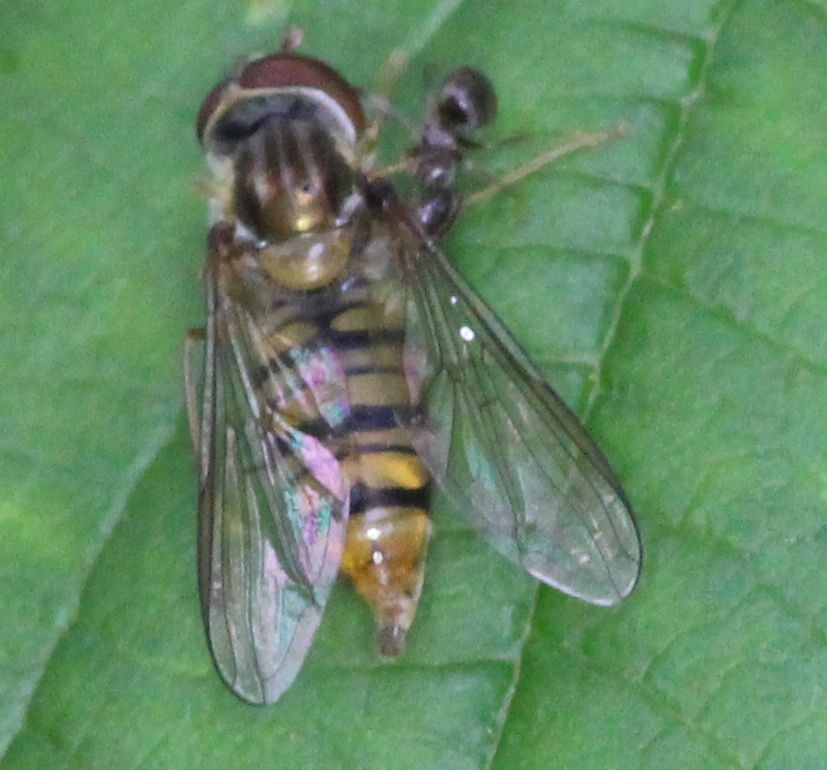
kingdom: Animalia
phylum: Arthropoda
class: Insecta
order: Diptera
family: Syrphidae
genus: Episyrphus
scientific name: Episyrphus balteatus
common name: Marmalade hoverfly
